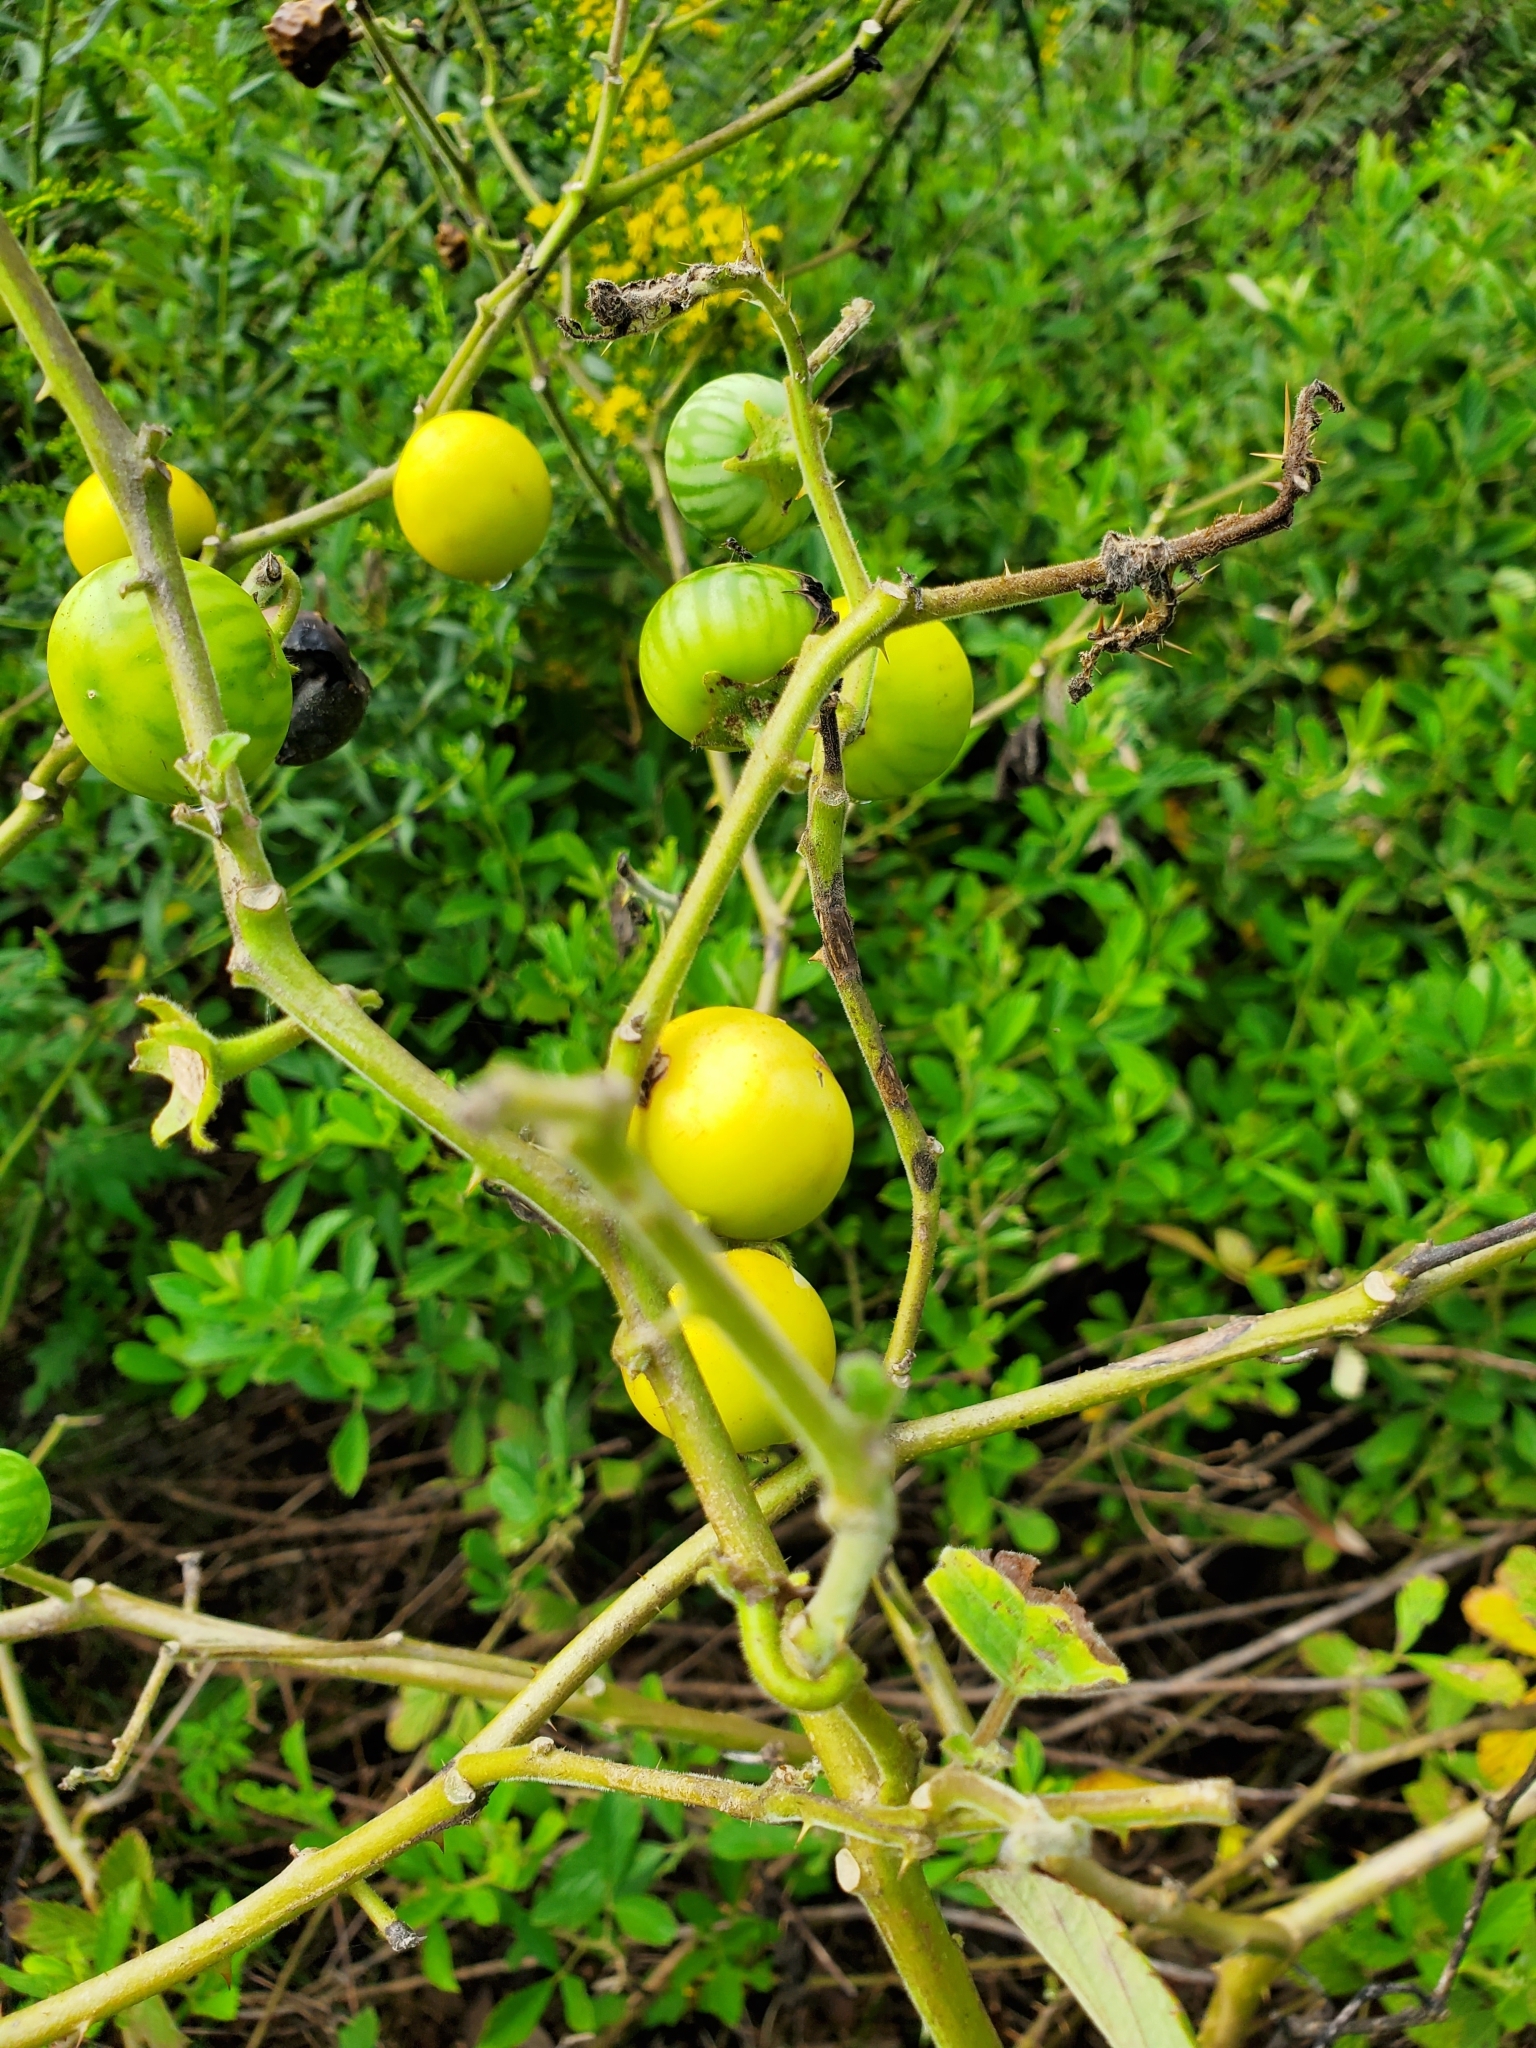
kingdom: Plantae
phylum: Tracheophyta
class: Magnoliopsida
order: Solanales
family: Solanaceae
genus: Solanum
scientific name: Solanum viarum
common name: Tropical soda apple
